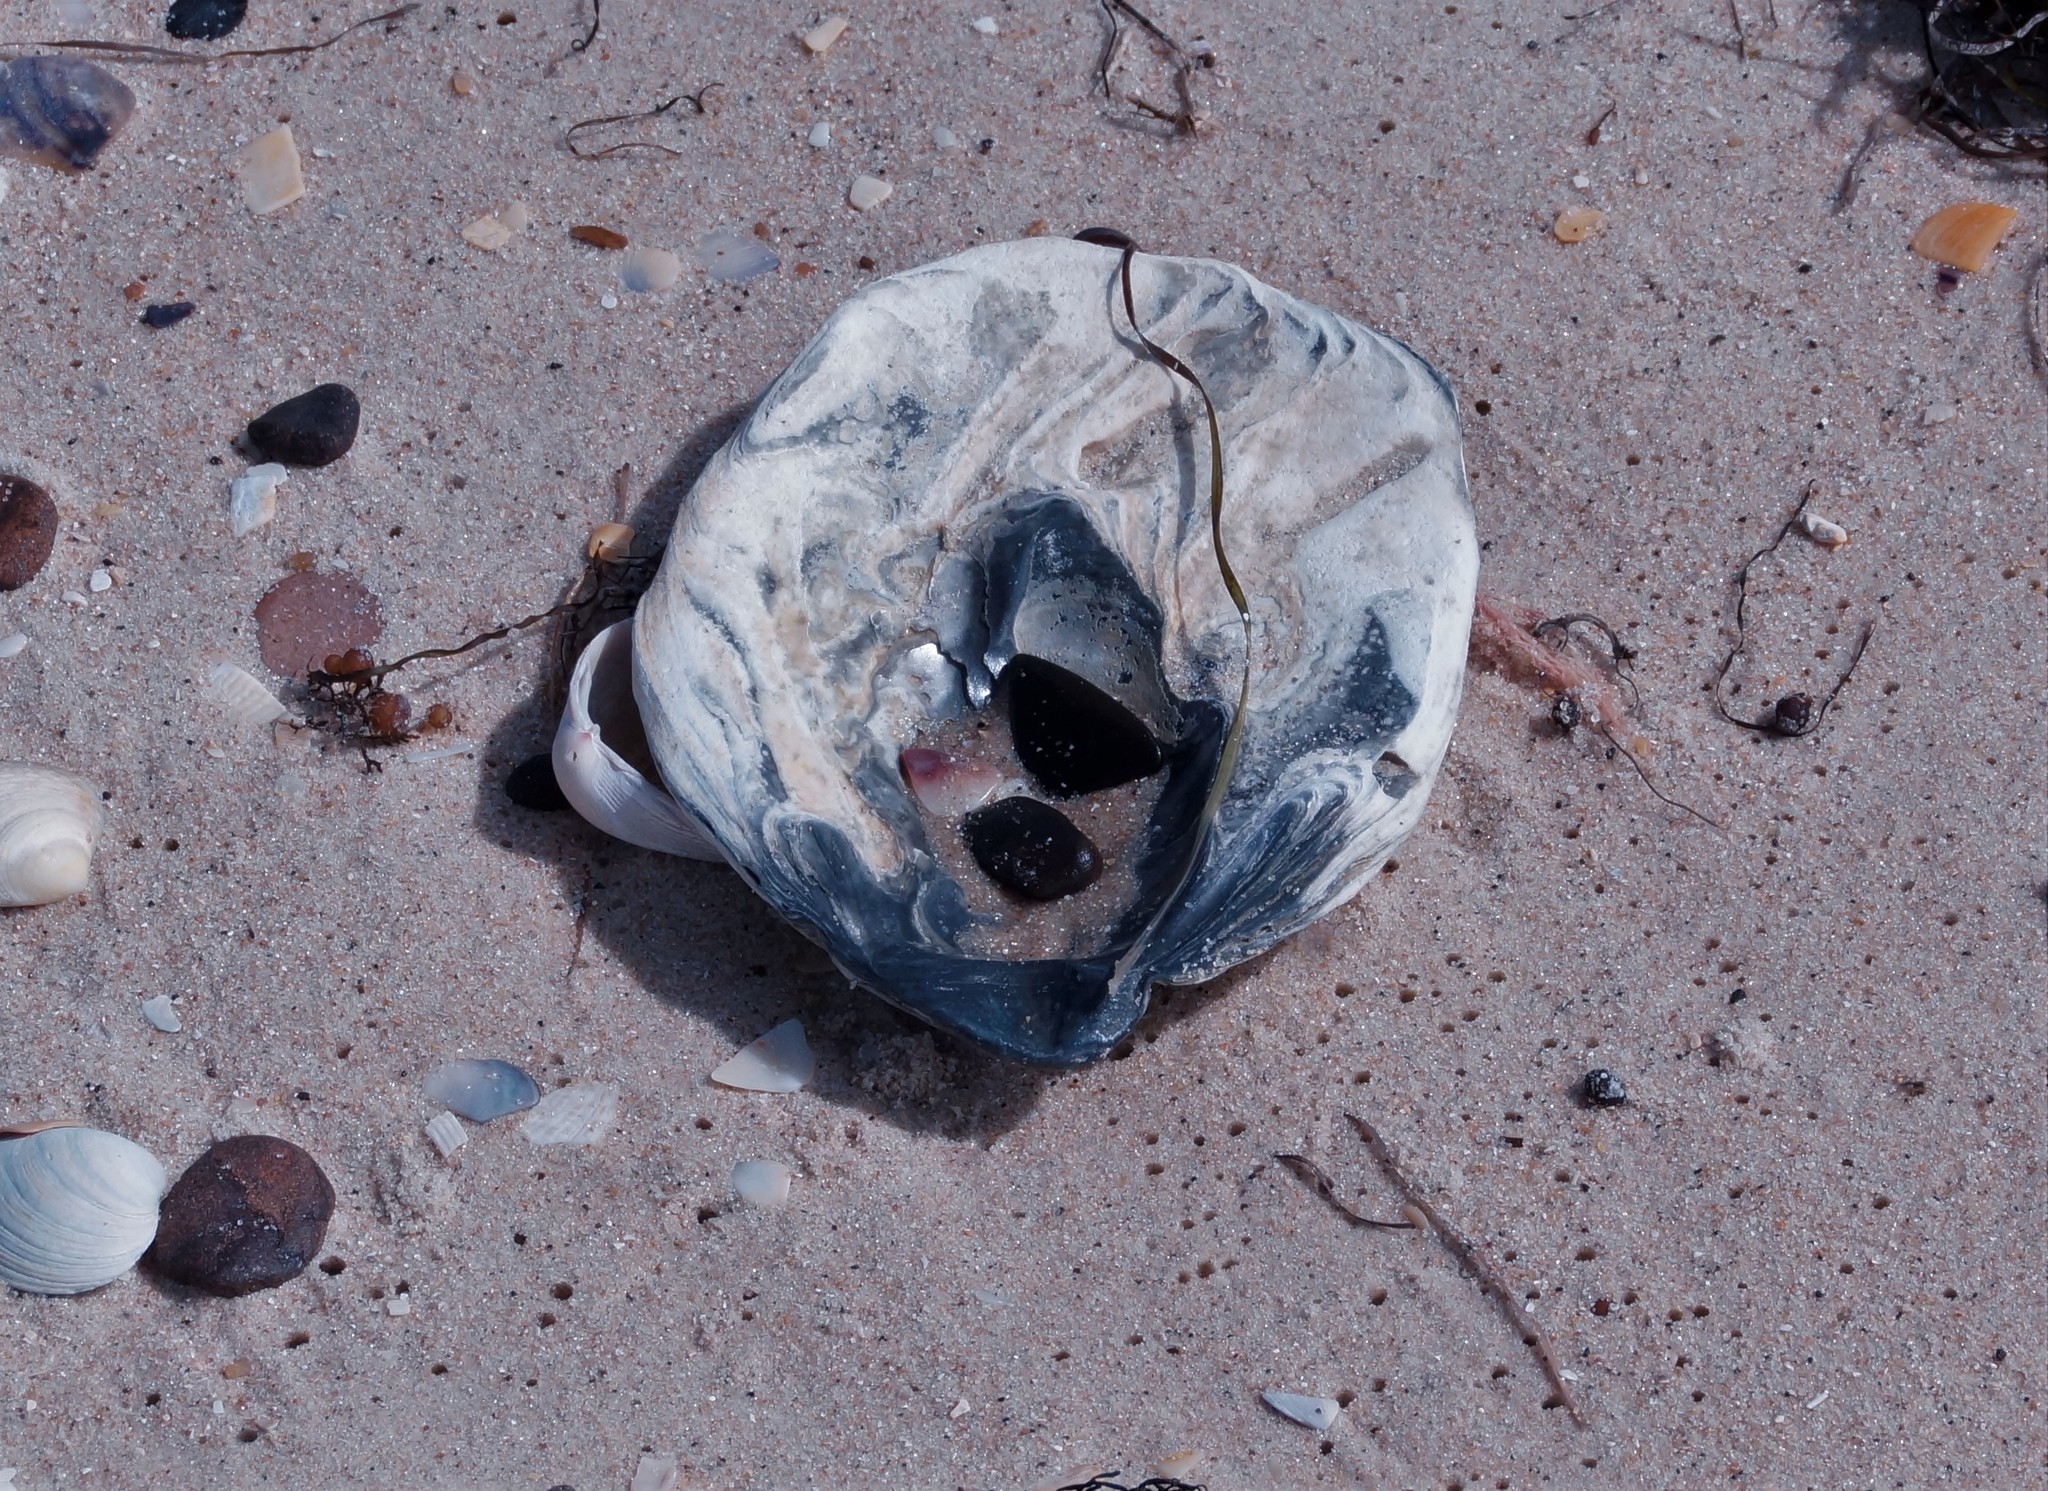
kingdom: Animalia
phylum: Mollusca
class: Bivalvia
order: Ostreida
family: Ostreidae
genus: Ostrea
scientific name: Ostrea angasi
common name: Angasi oyster
